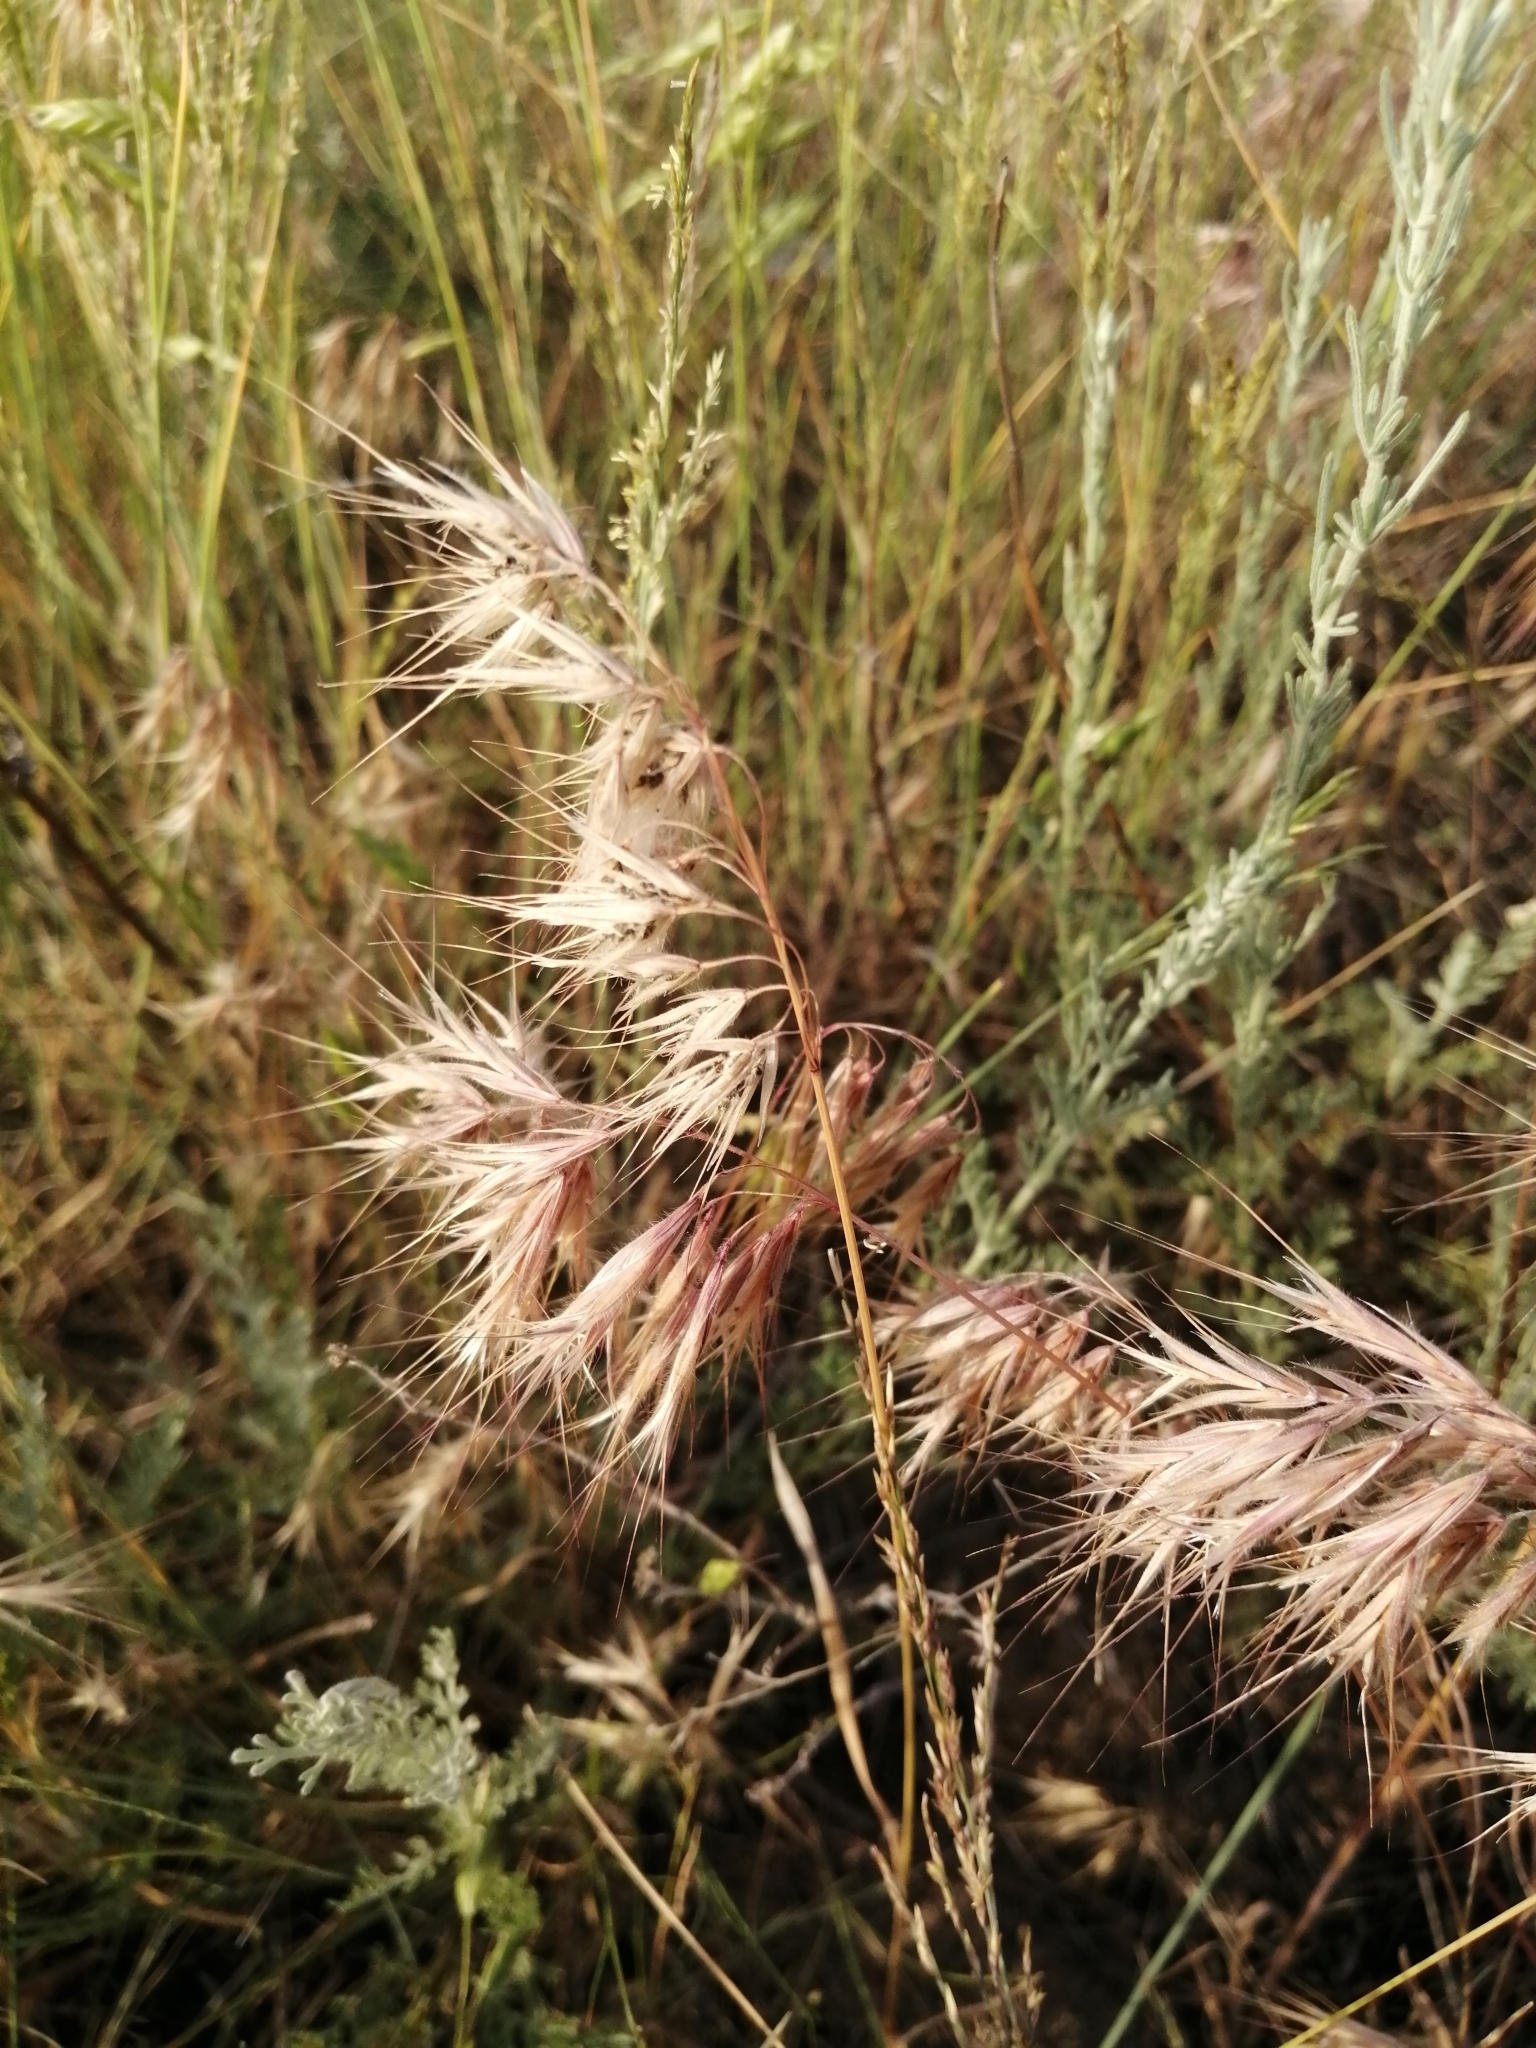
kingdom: Plantae
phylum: Tracheophyta
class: Liliopsida
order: Poales
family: Poaceae
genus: Bromus
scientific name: Bromus tectorum
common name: Cheatgrass
